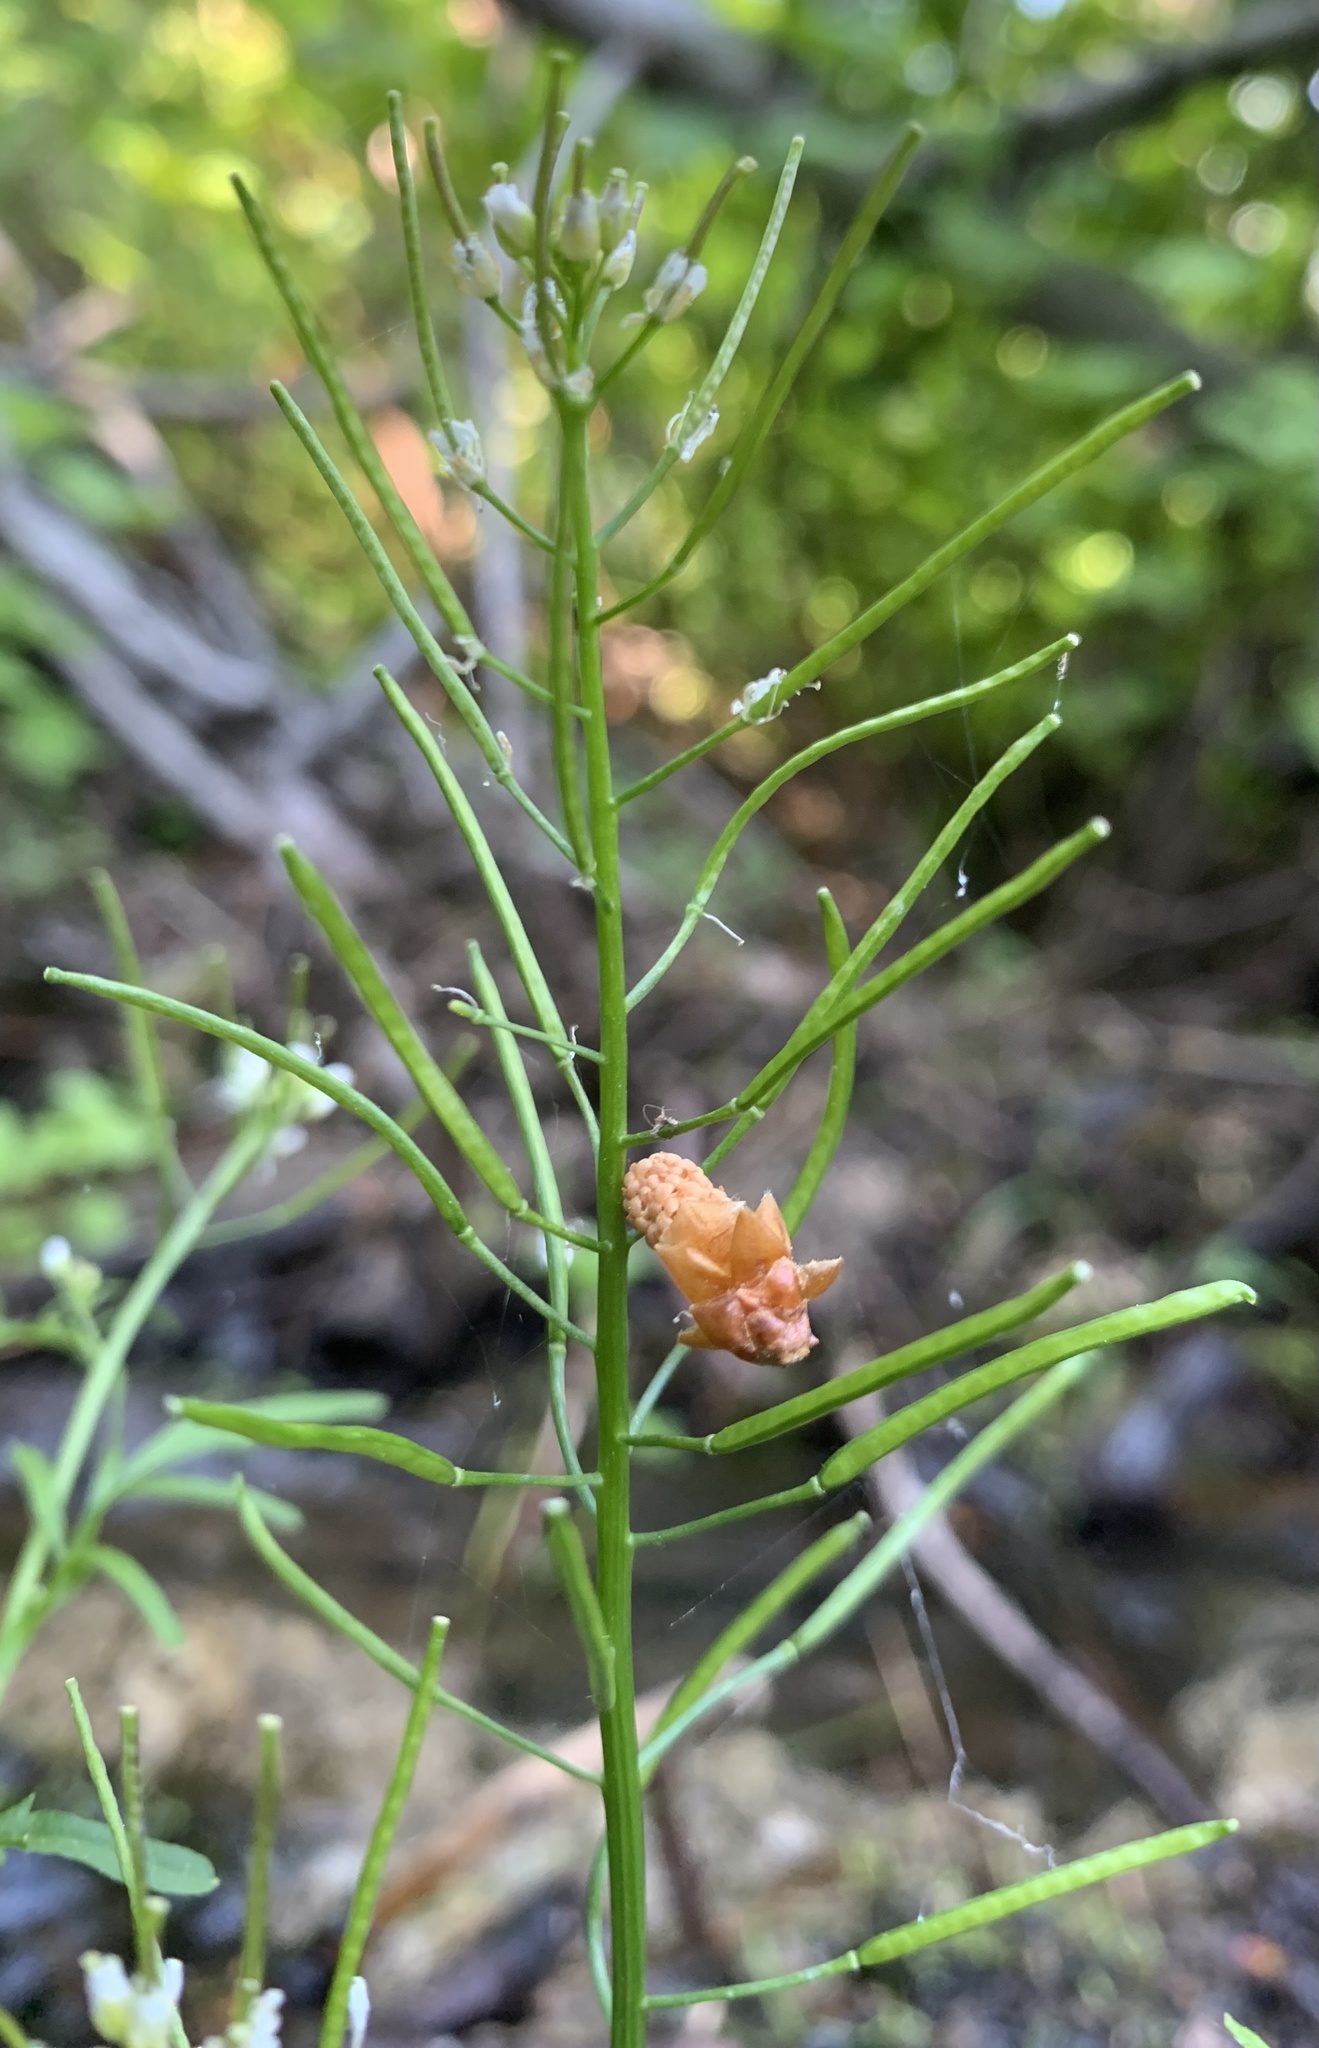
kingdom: Plantae
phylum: Tracheophyta
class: Magnoliopsida
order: Brassicales
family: Brassicaceae
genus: Cardamine
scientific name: Cardamine pensylvanica
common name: Pennsylvania bittercress
